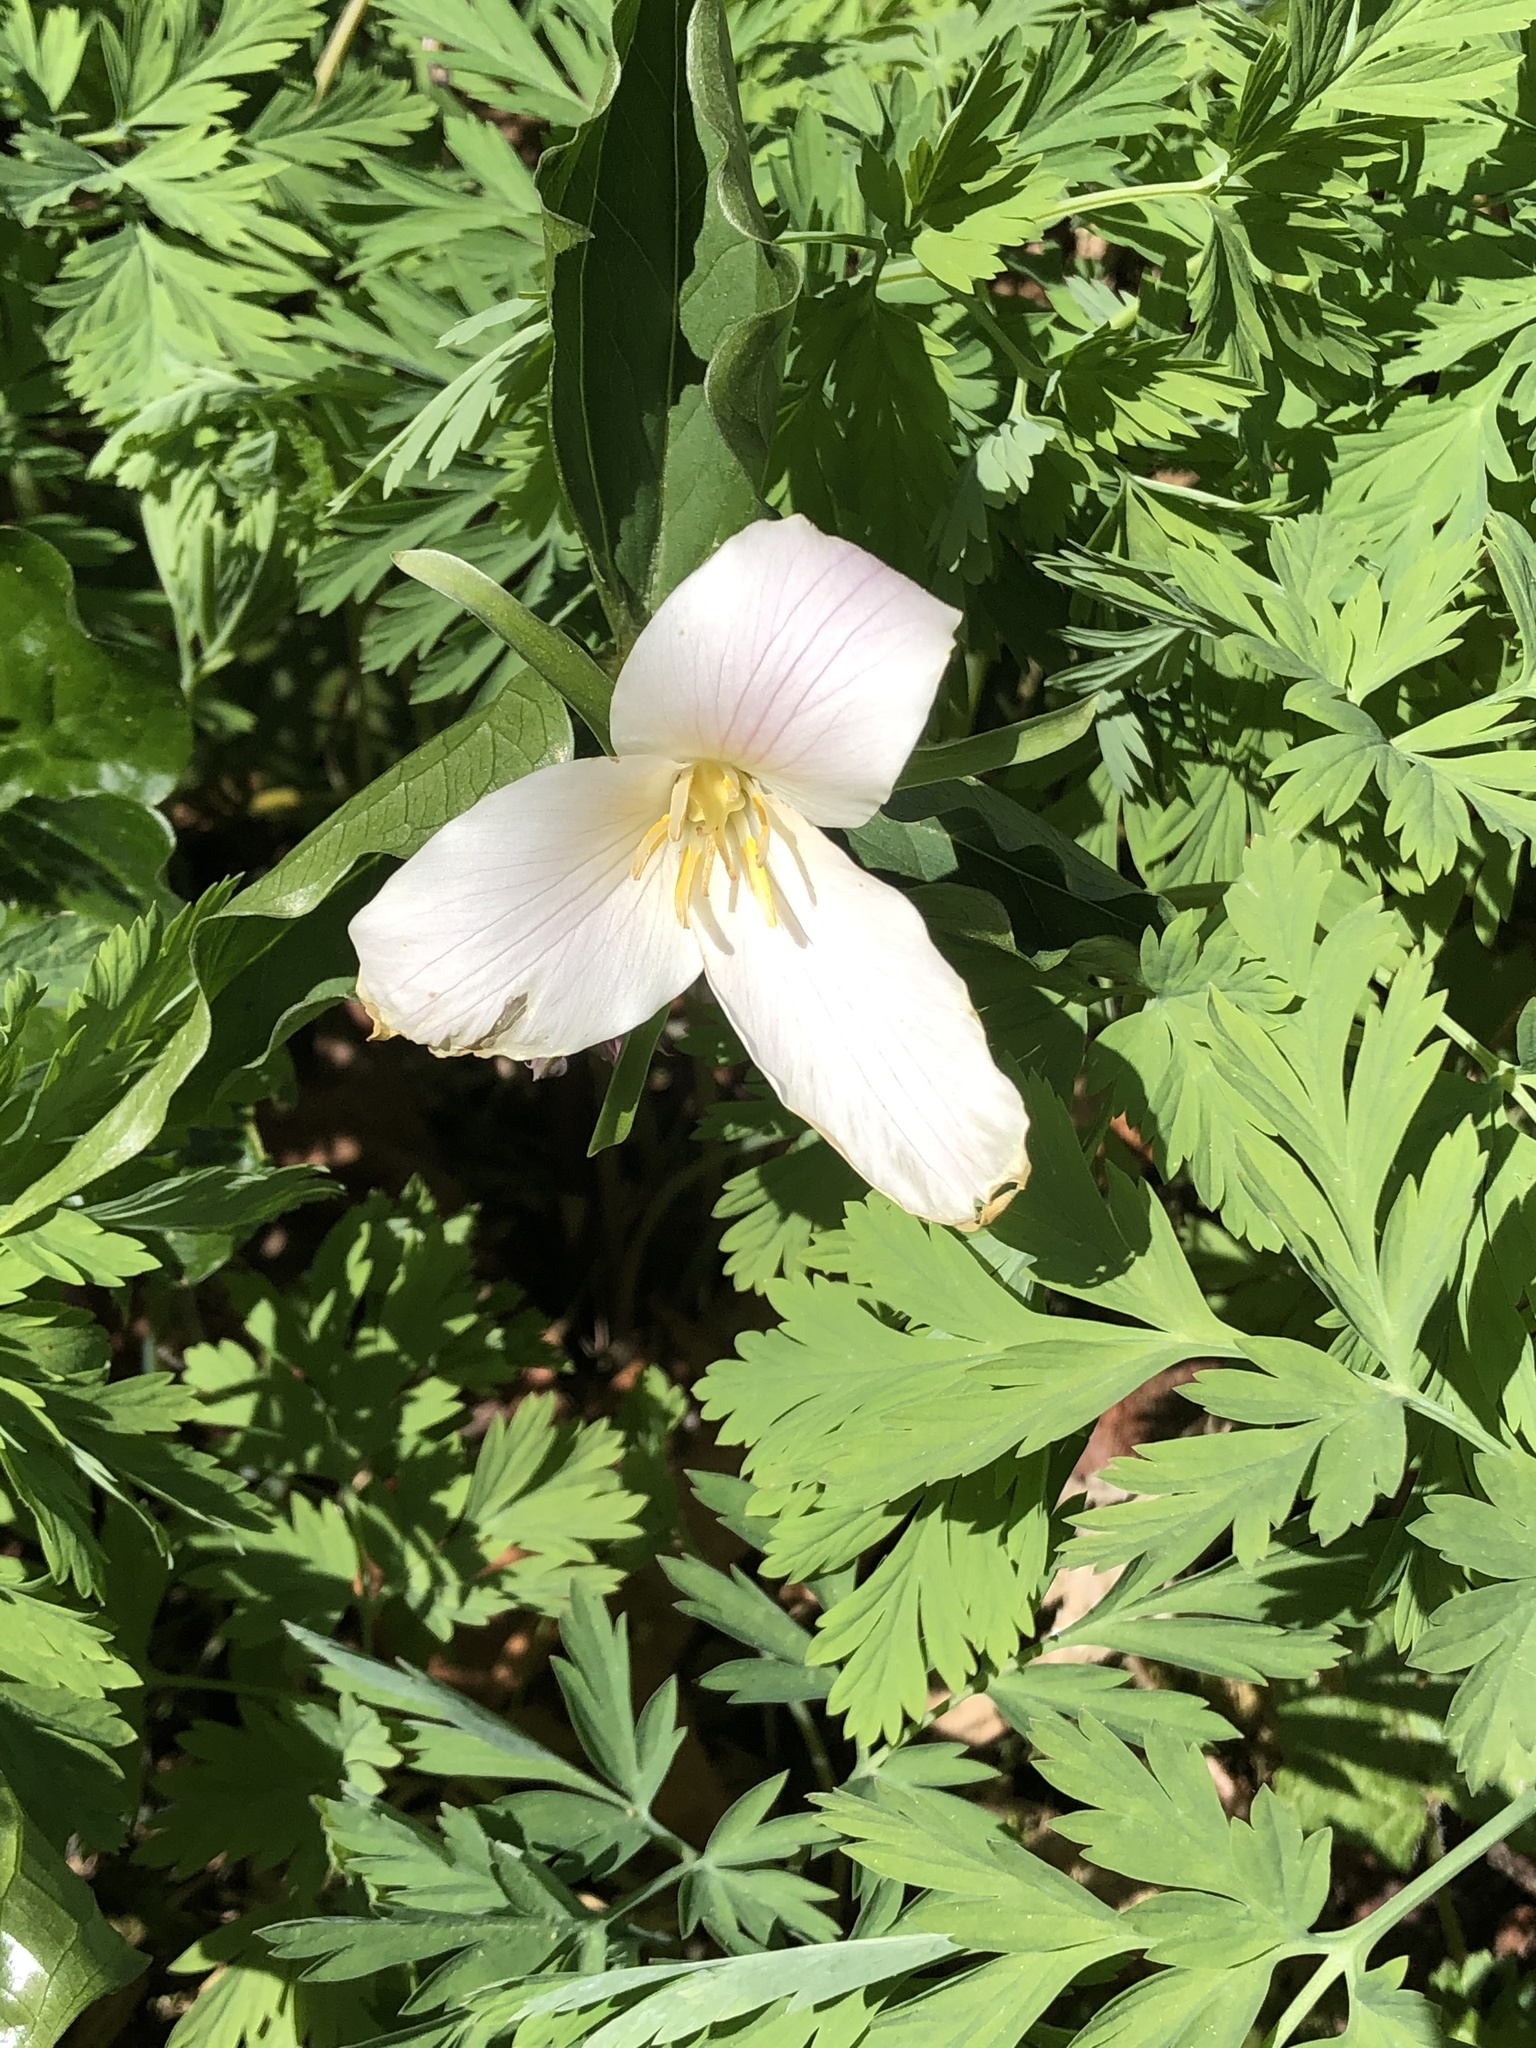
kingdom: Plantae
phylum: Tracheophyta
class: Liliopsida
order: Liliales
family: Melanthiaceae
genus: Trillium
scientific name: Trillium ovatum
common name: Pacific trillium
